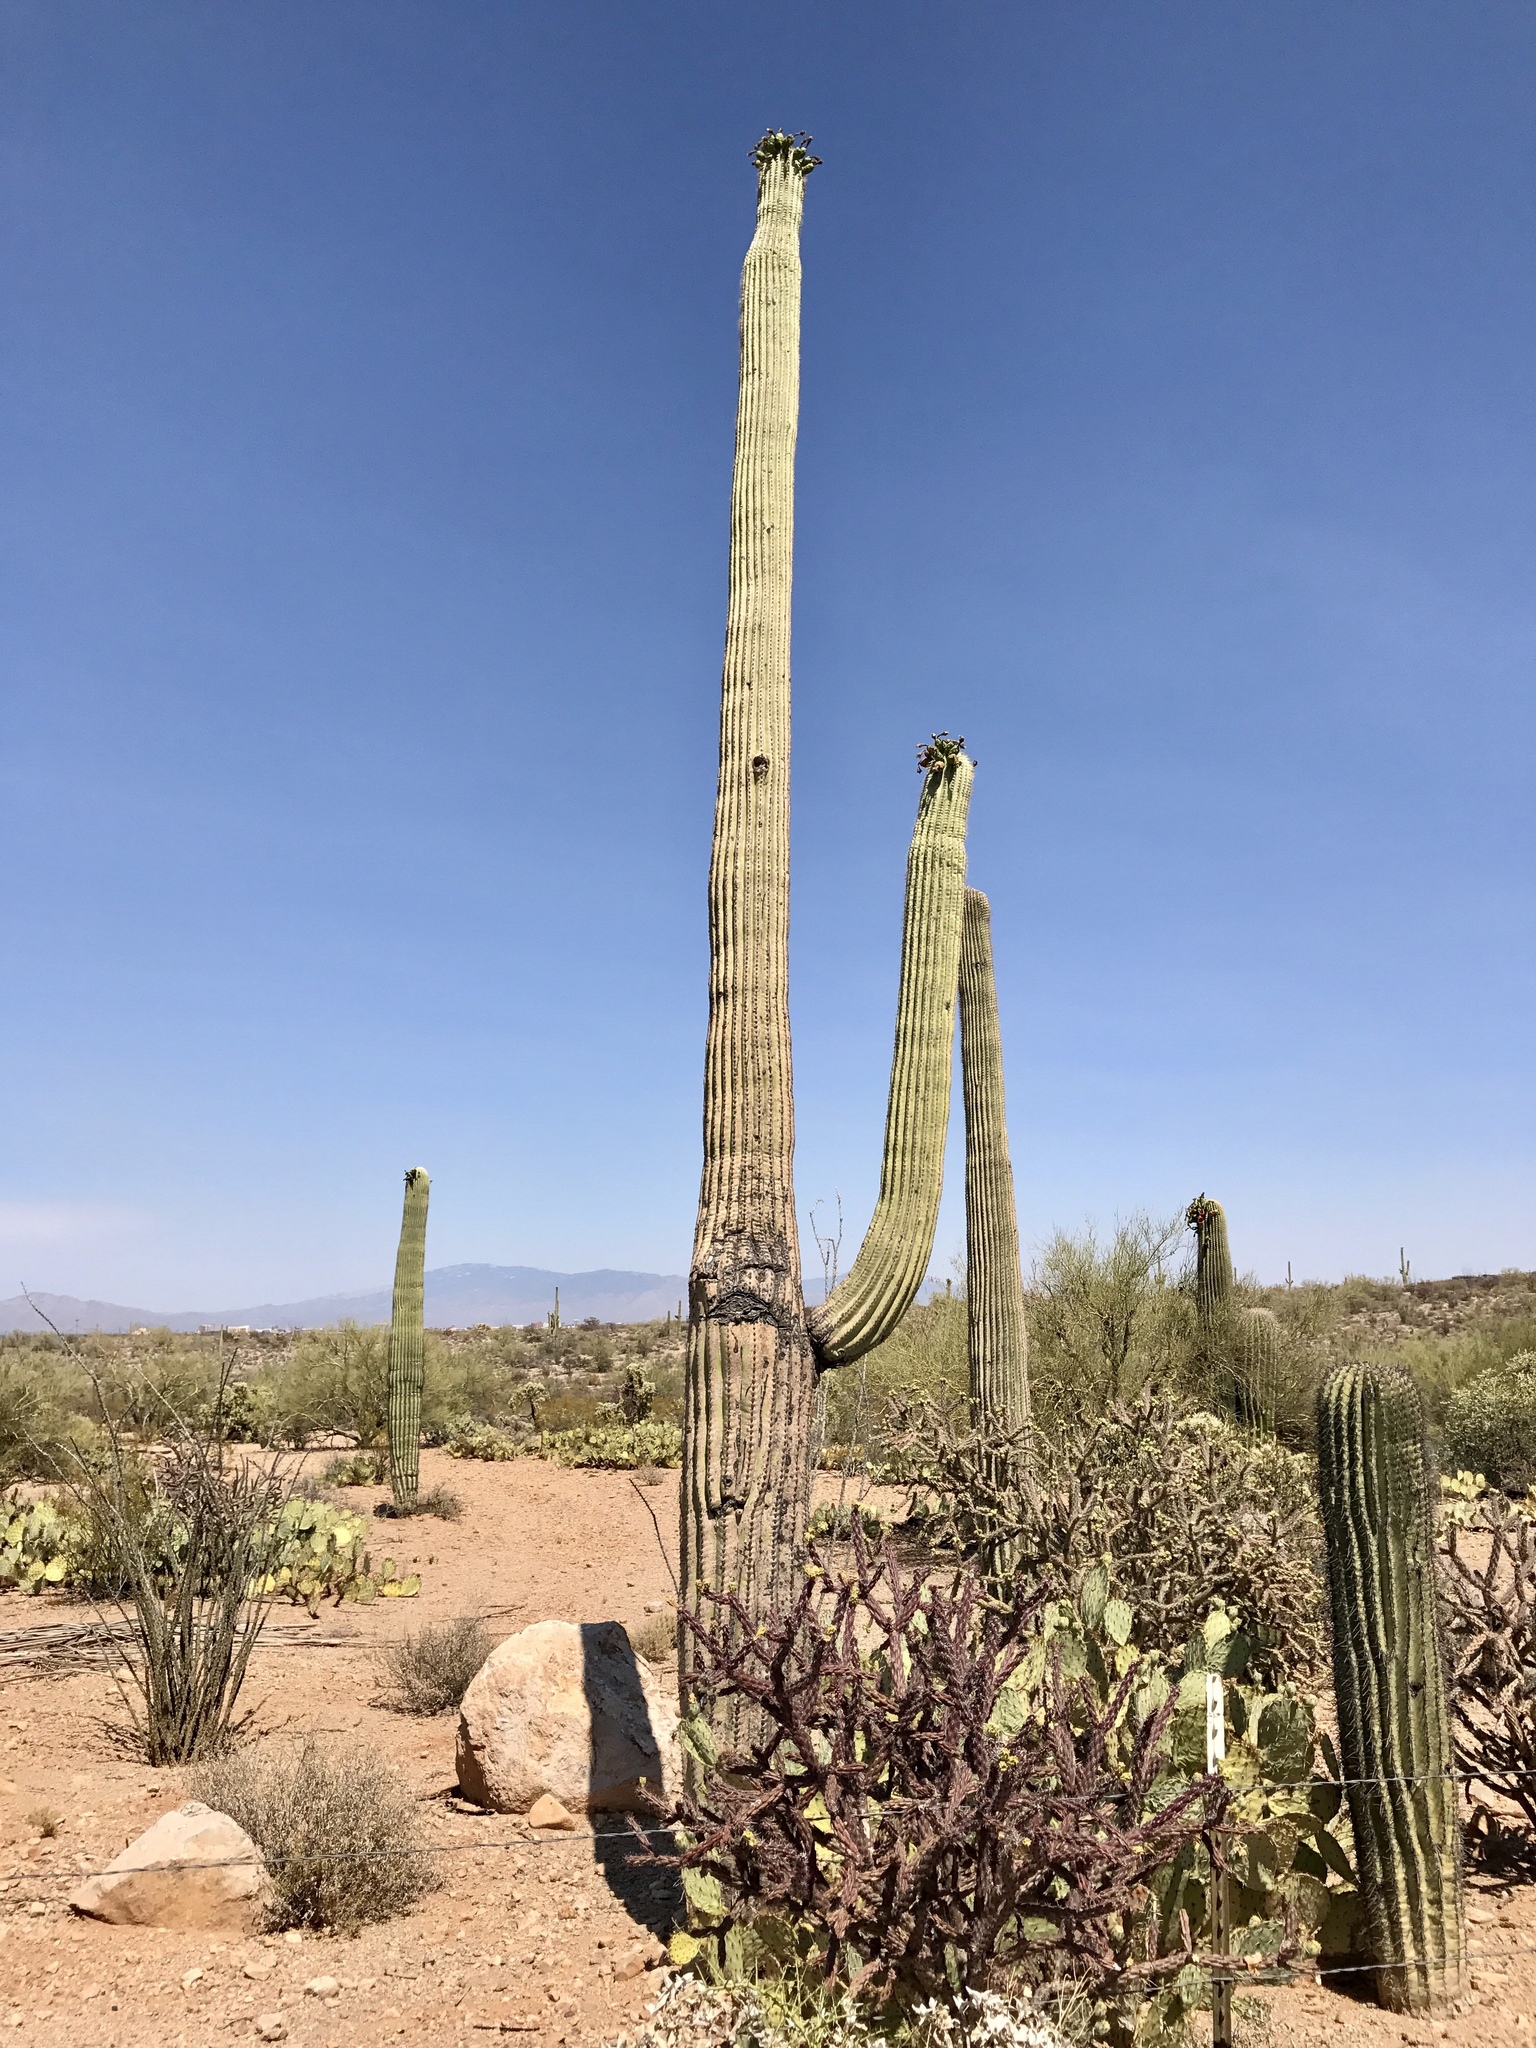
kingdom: Plantae
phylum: Tracheophyta
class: Magnoliopsida
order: Caryophyllales
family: Cactaceae
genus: Carnegiea
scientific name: Carnegiea gigantea
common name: Saguaro
